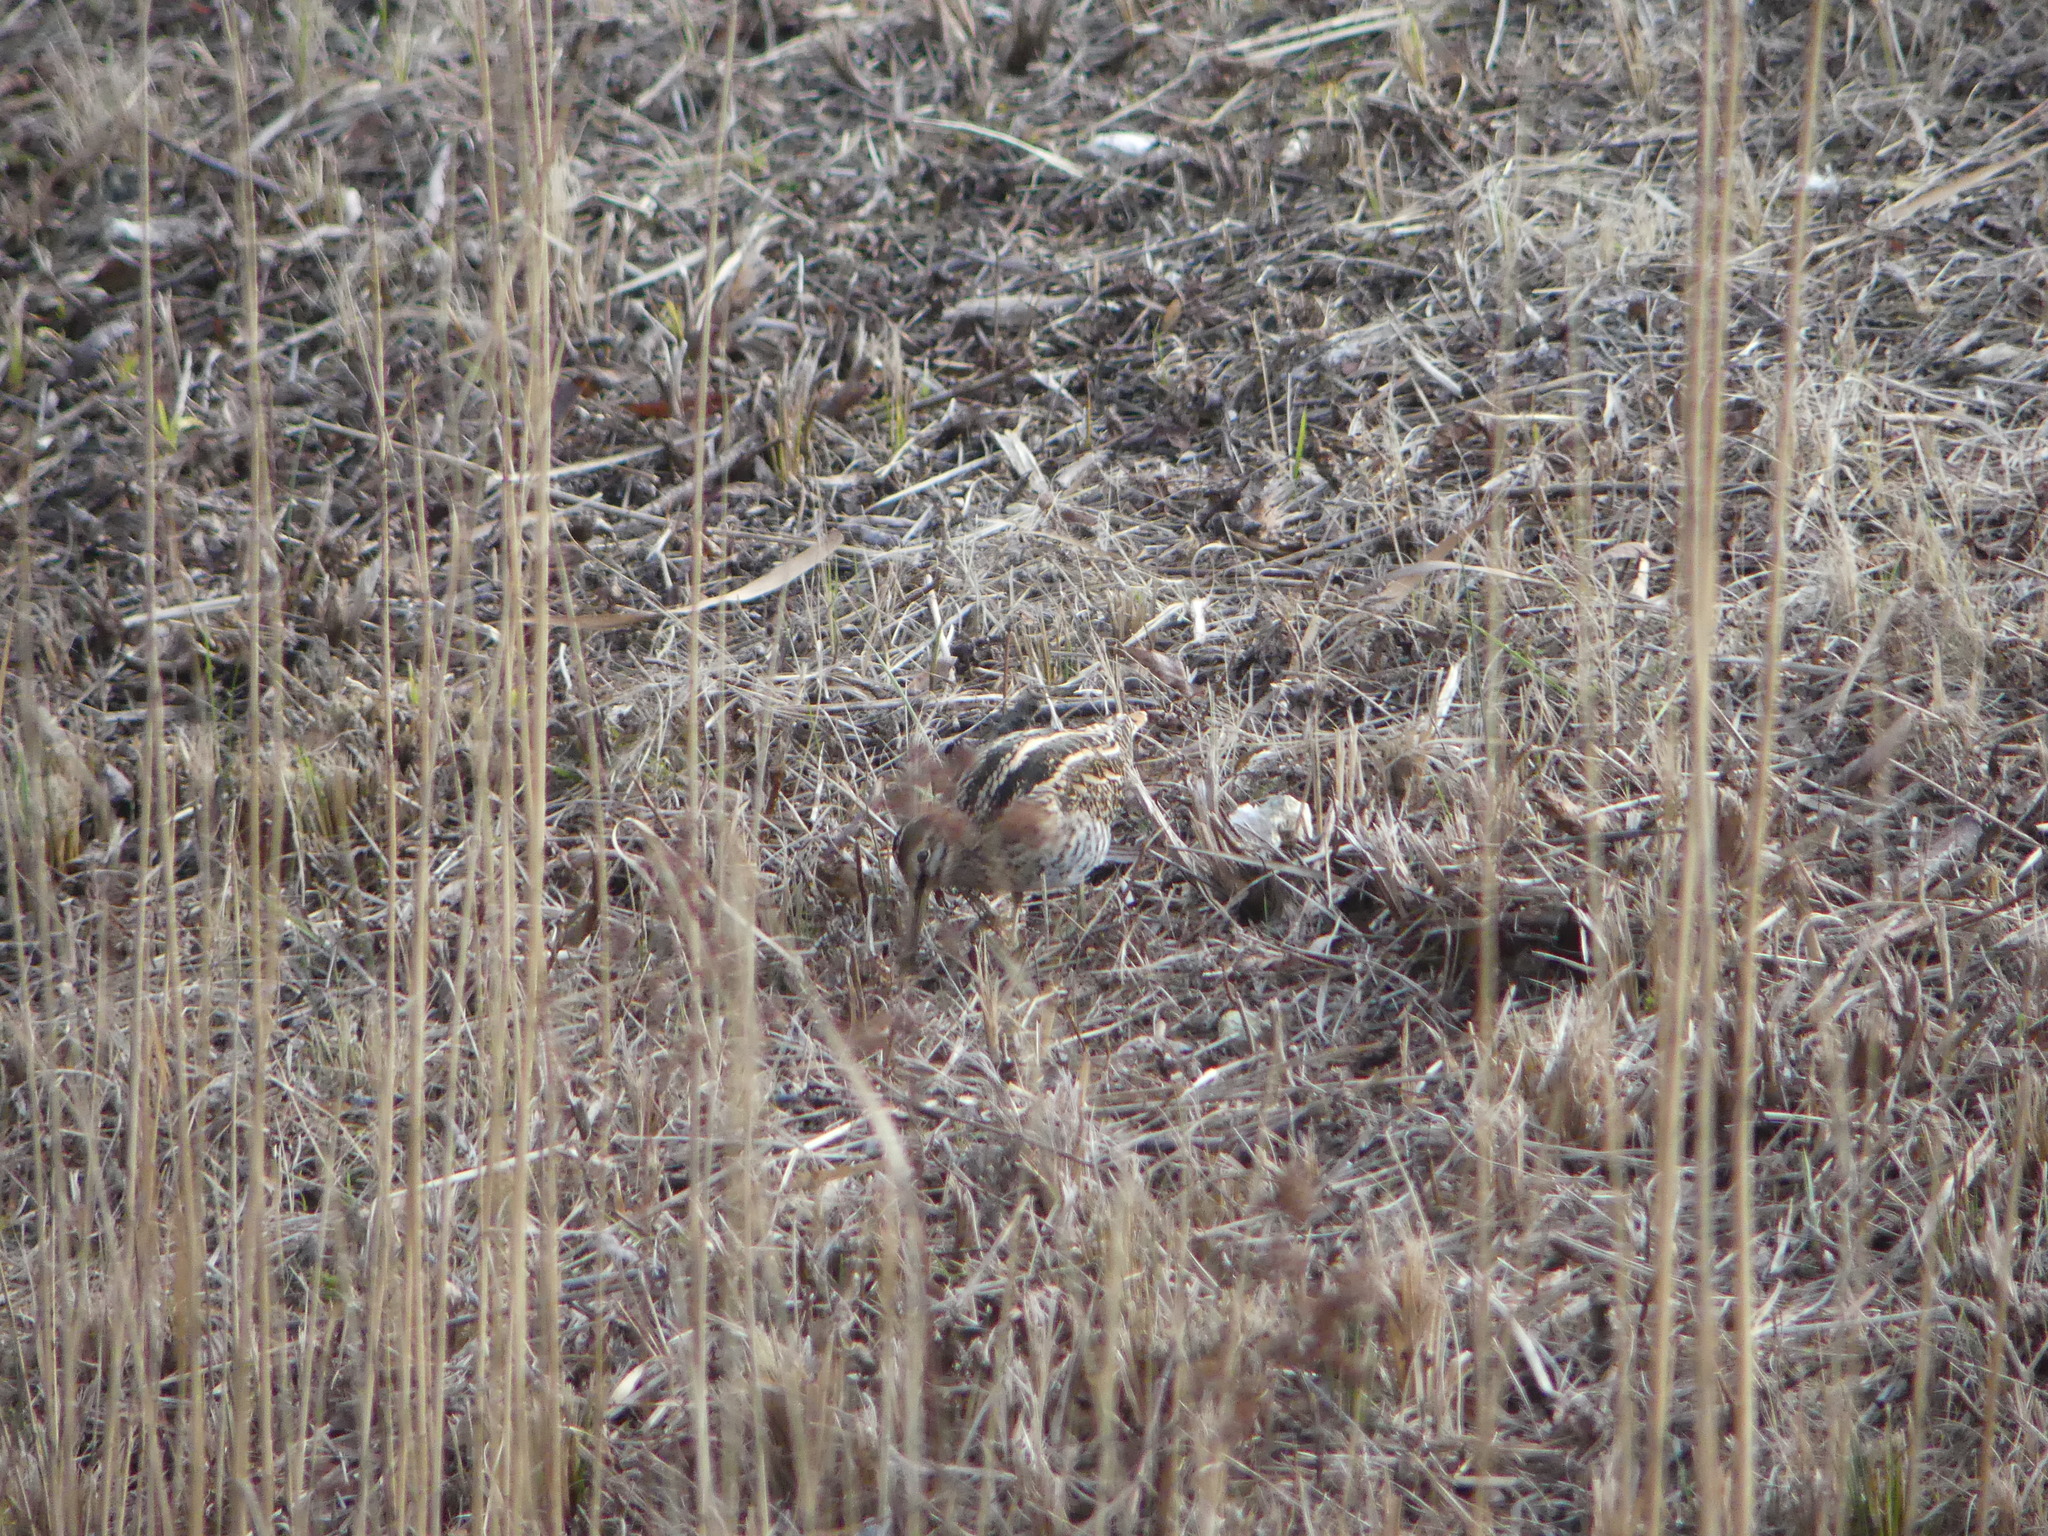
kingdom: Animalia
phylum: Chordata
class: Aves
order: Charadriiformes
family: Scolopacidae
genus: Gallinago
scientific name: Gallinago gallinago
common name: Common snipe
